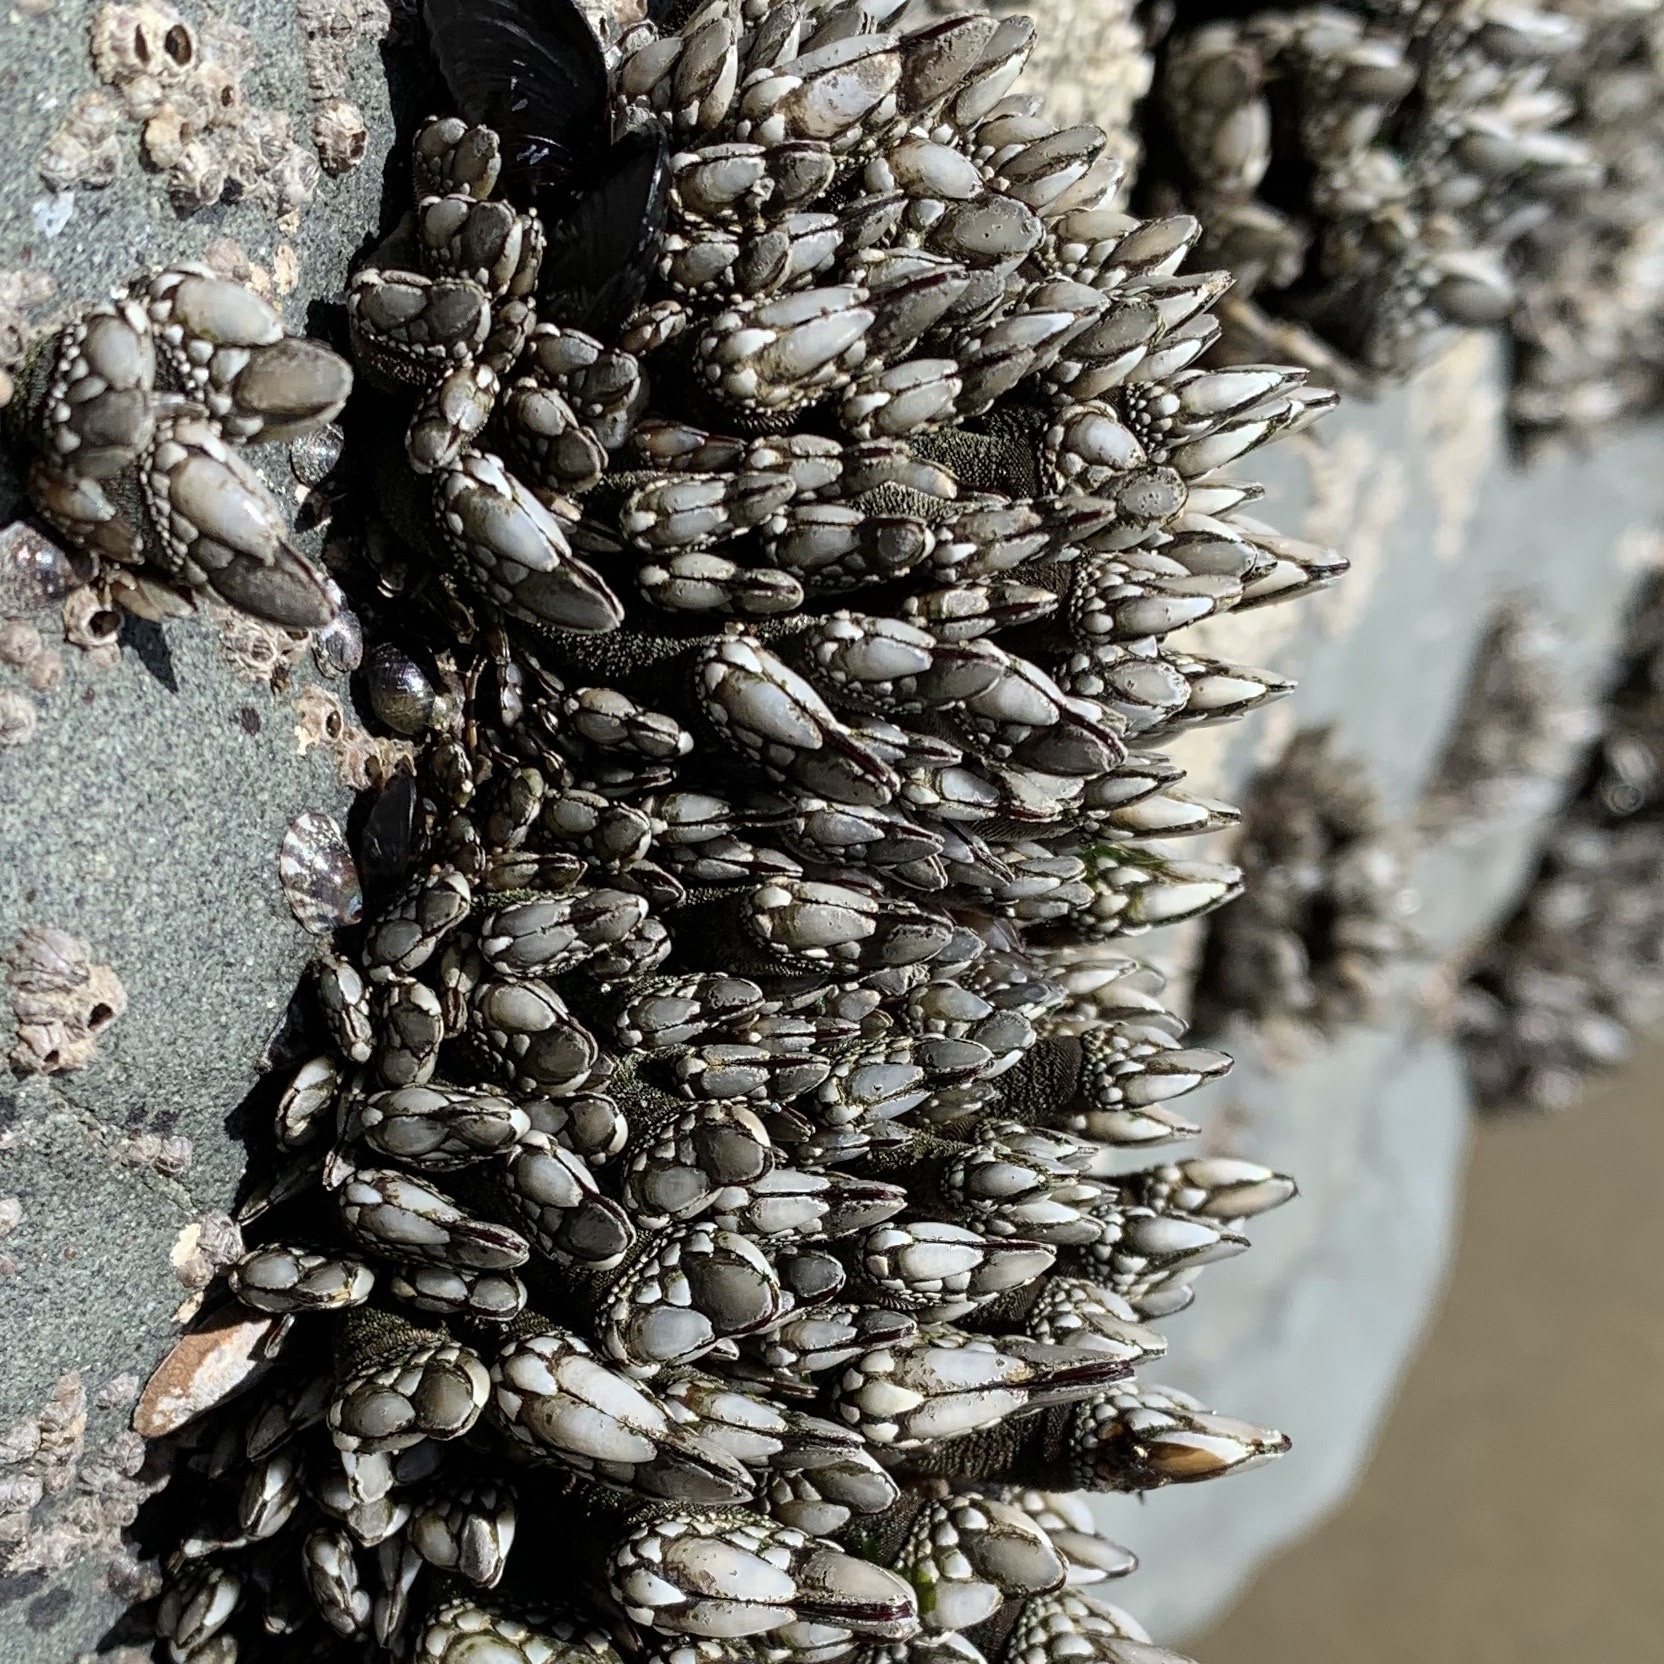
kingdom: Animalia
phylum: Arthropoda
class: Maxillopoda
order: Pedunculata
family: Pollicipedidae
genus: Pollicipes
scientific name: Pollicipes polymerus
